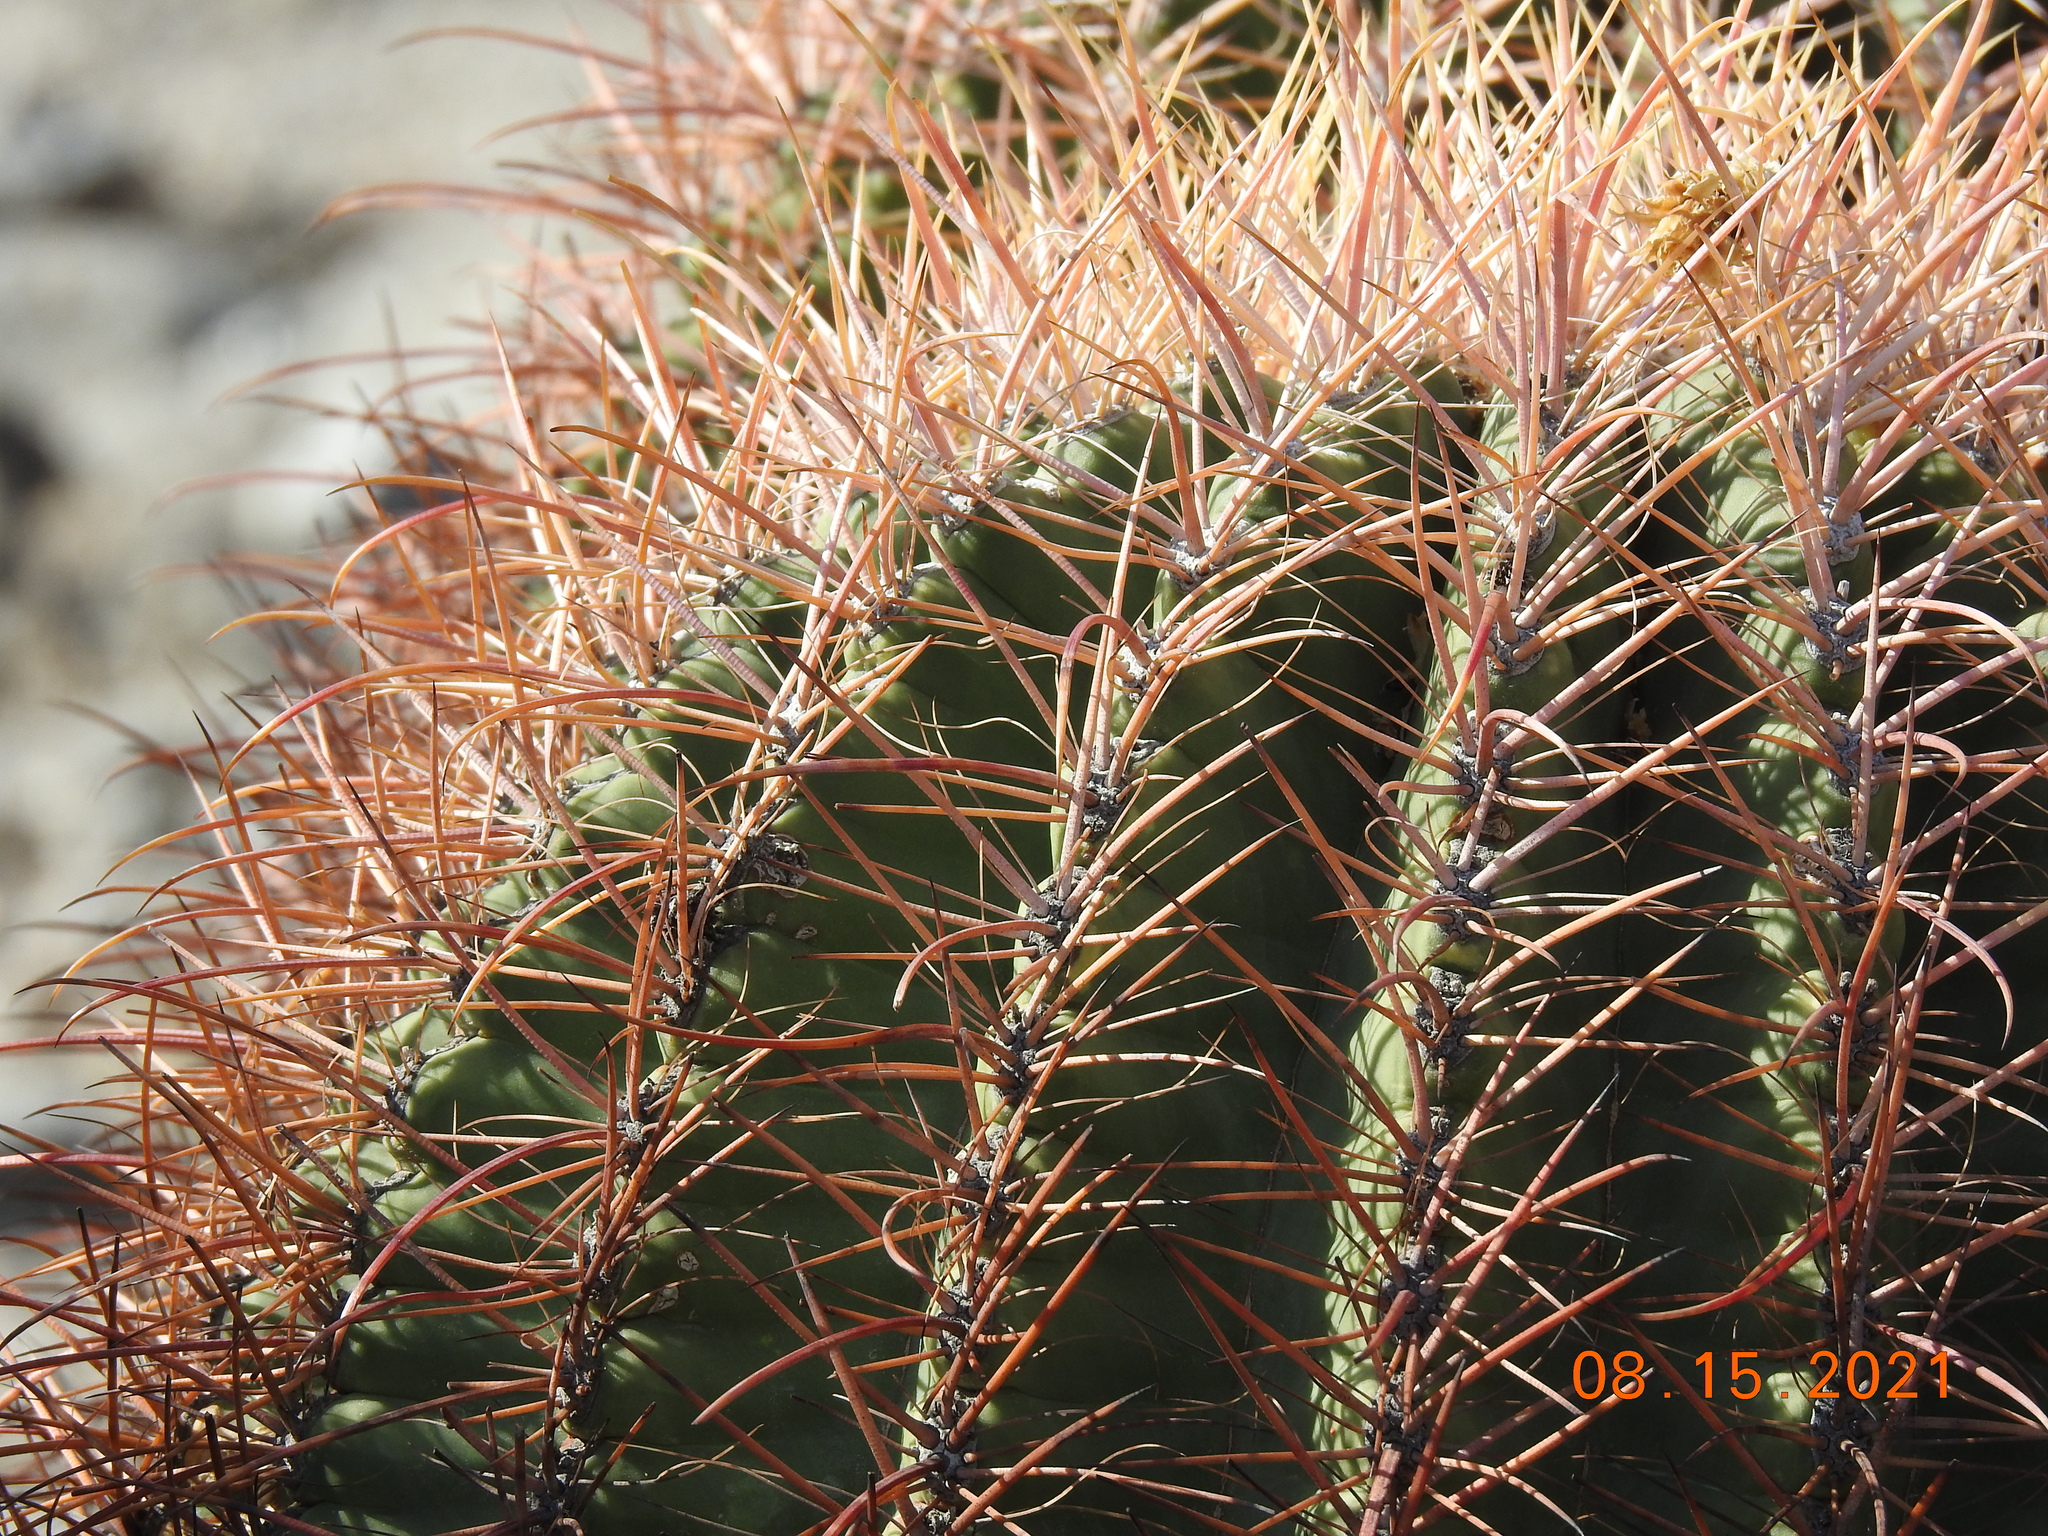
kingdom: Plantae
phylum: Tracheophyta
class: Magnoliopsida
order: Caryophyllales
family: Cactaceae
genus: Ferocactus
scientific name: Ferocactus cylindraceus
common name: California barrel cactus
